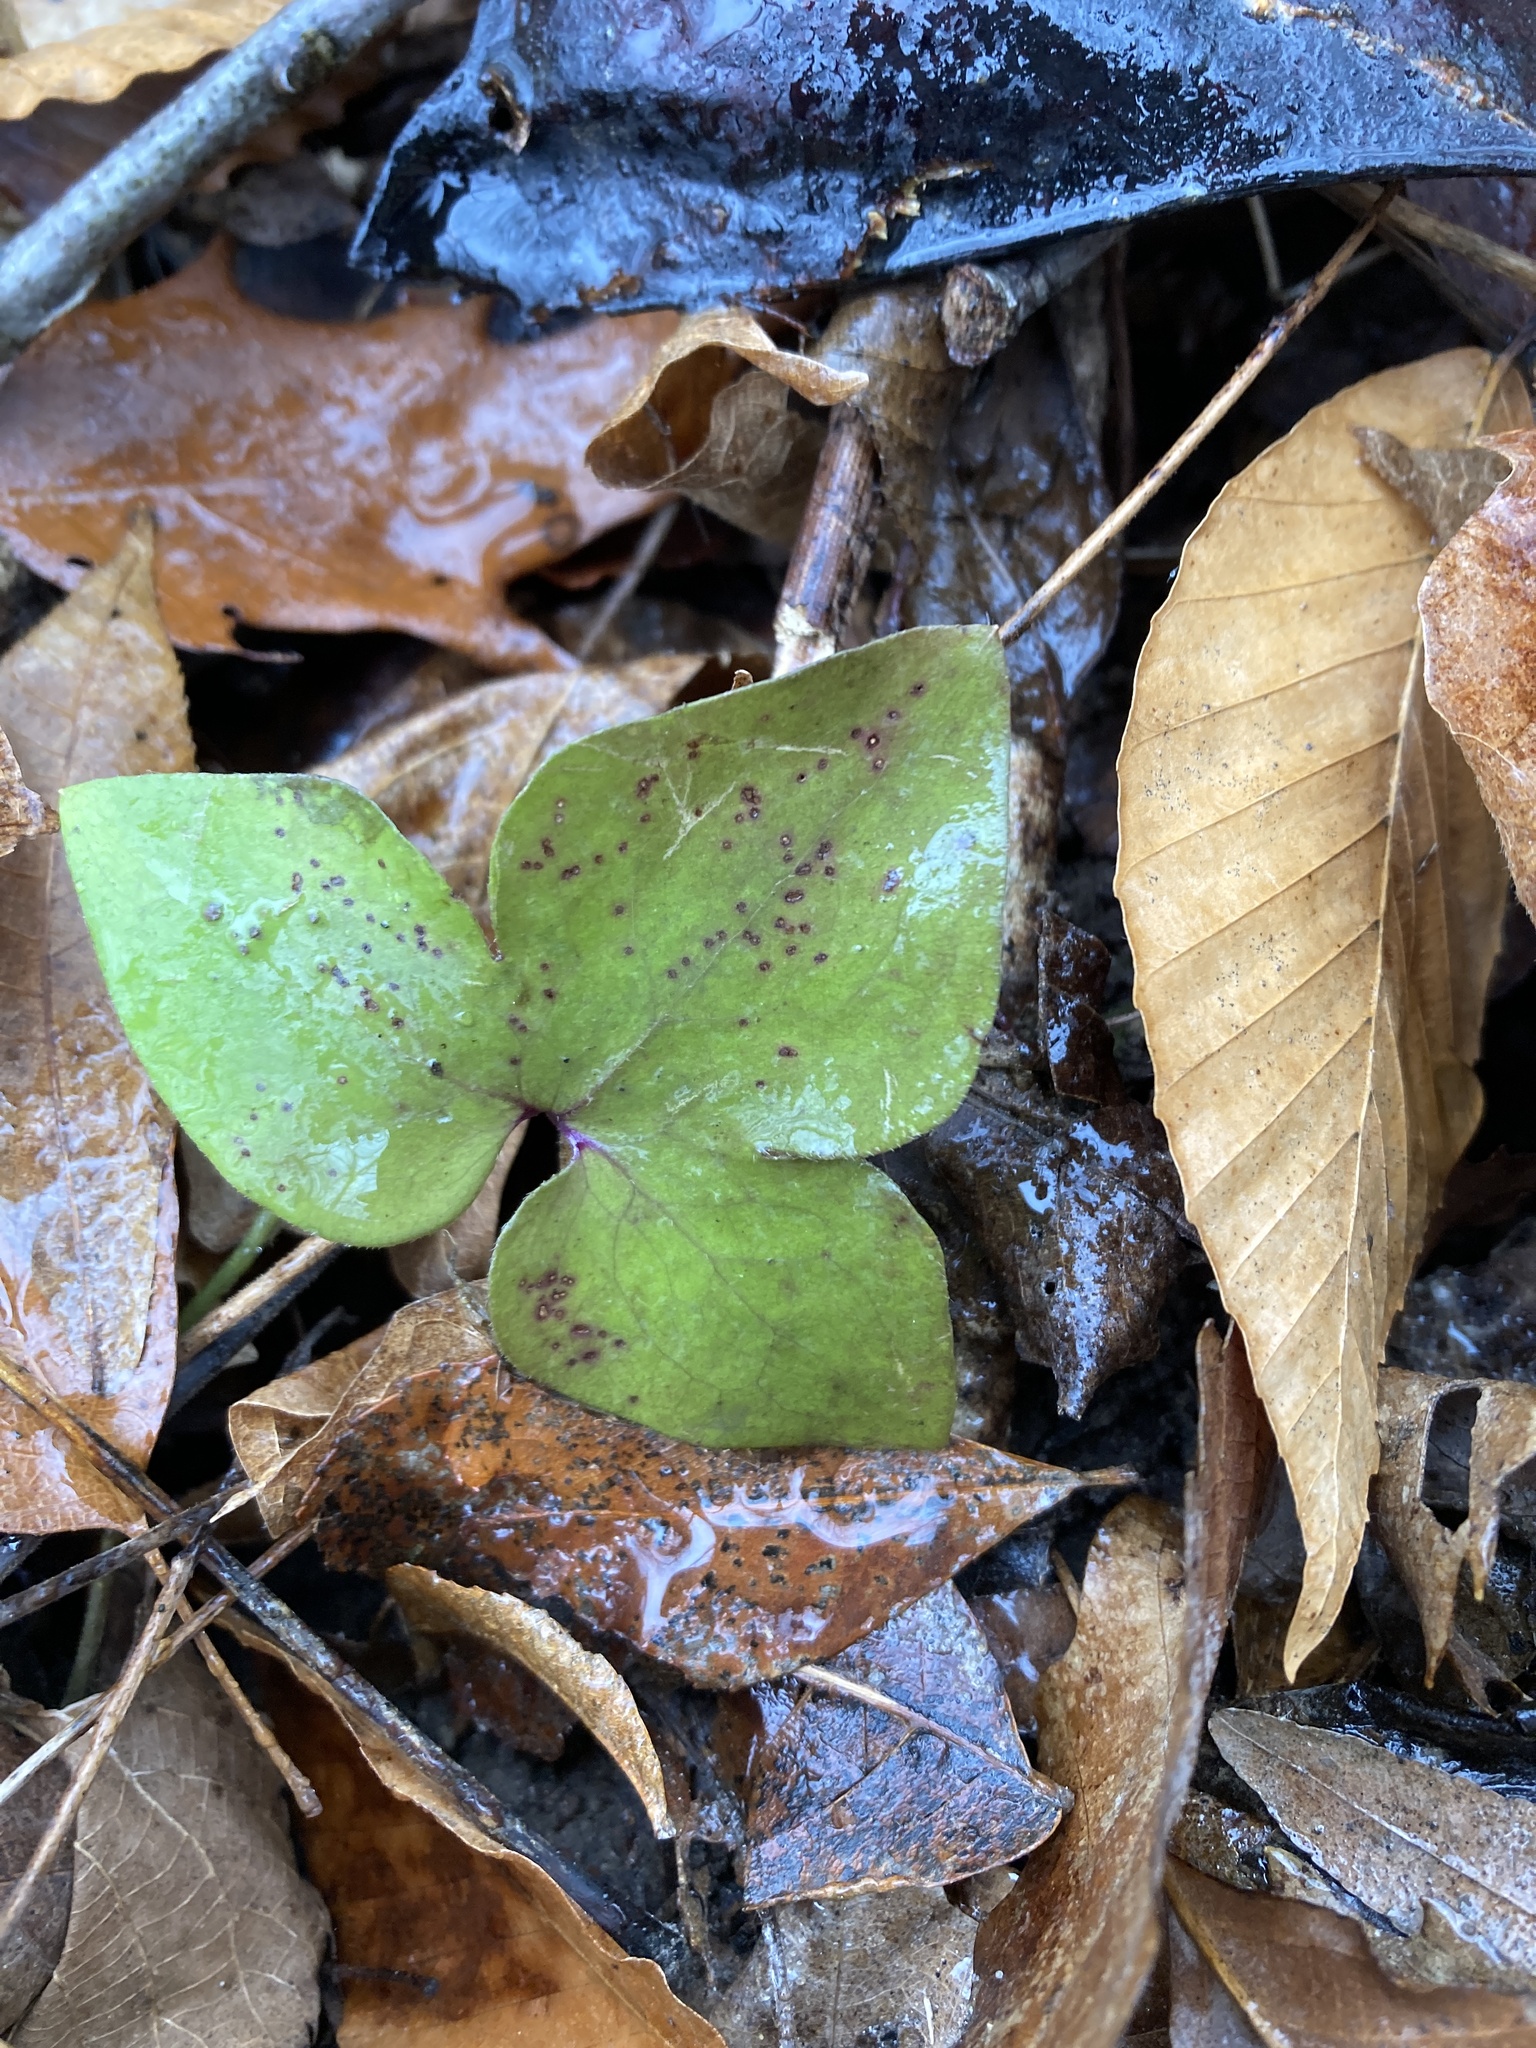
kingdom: Plantae
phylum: Tracheophyta
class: Magnoliopsida
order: Ranunculales
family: Ranunculaceae
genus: Hepatica
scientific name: Hepatica acutiloba
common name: Sharp-lobed hepatica
